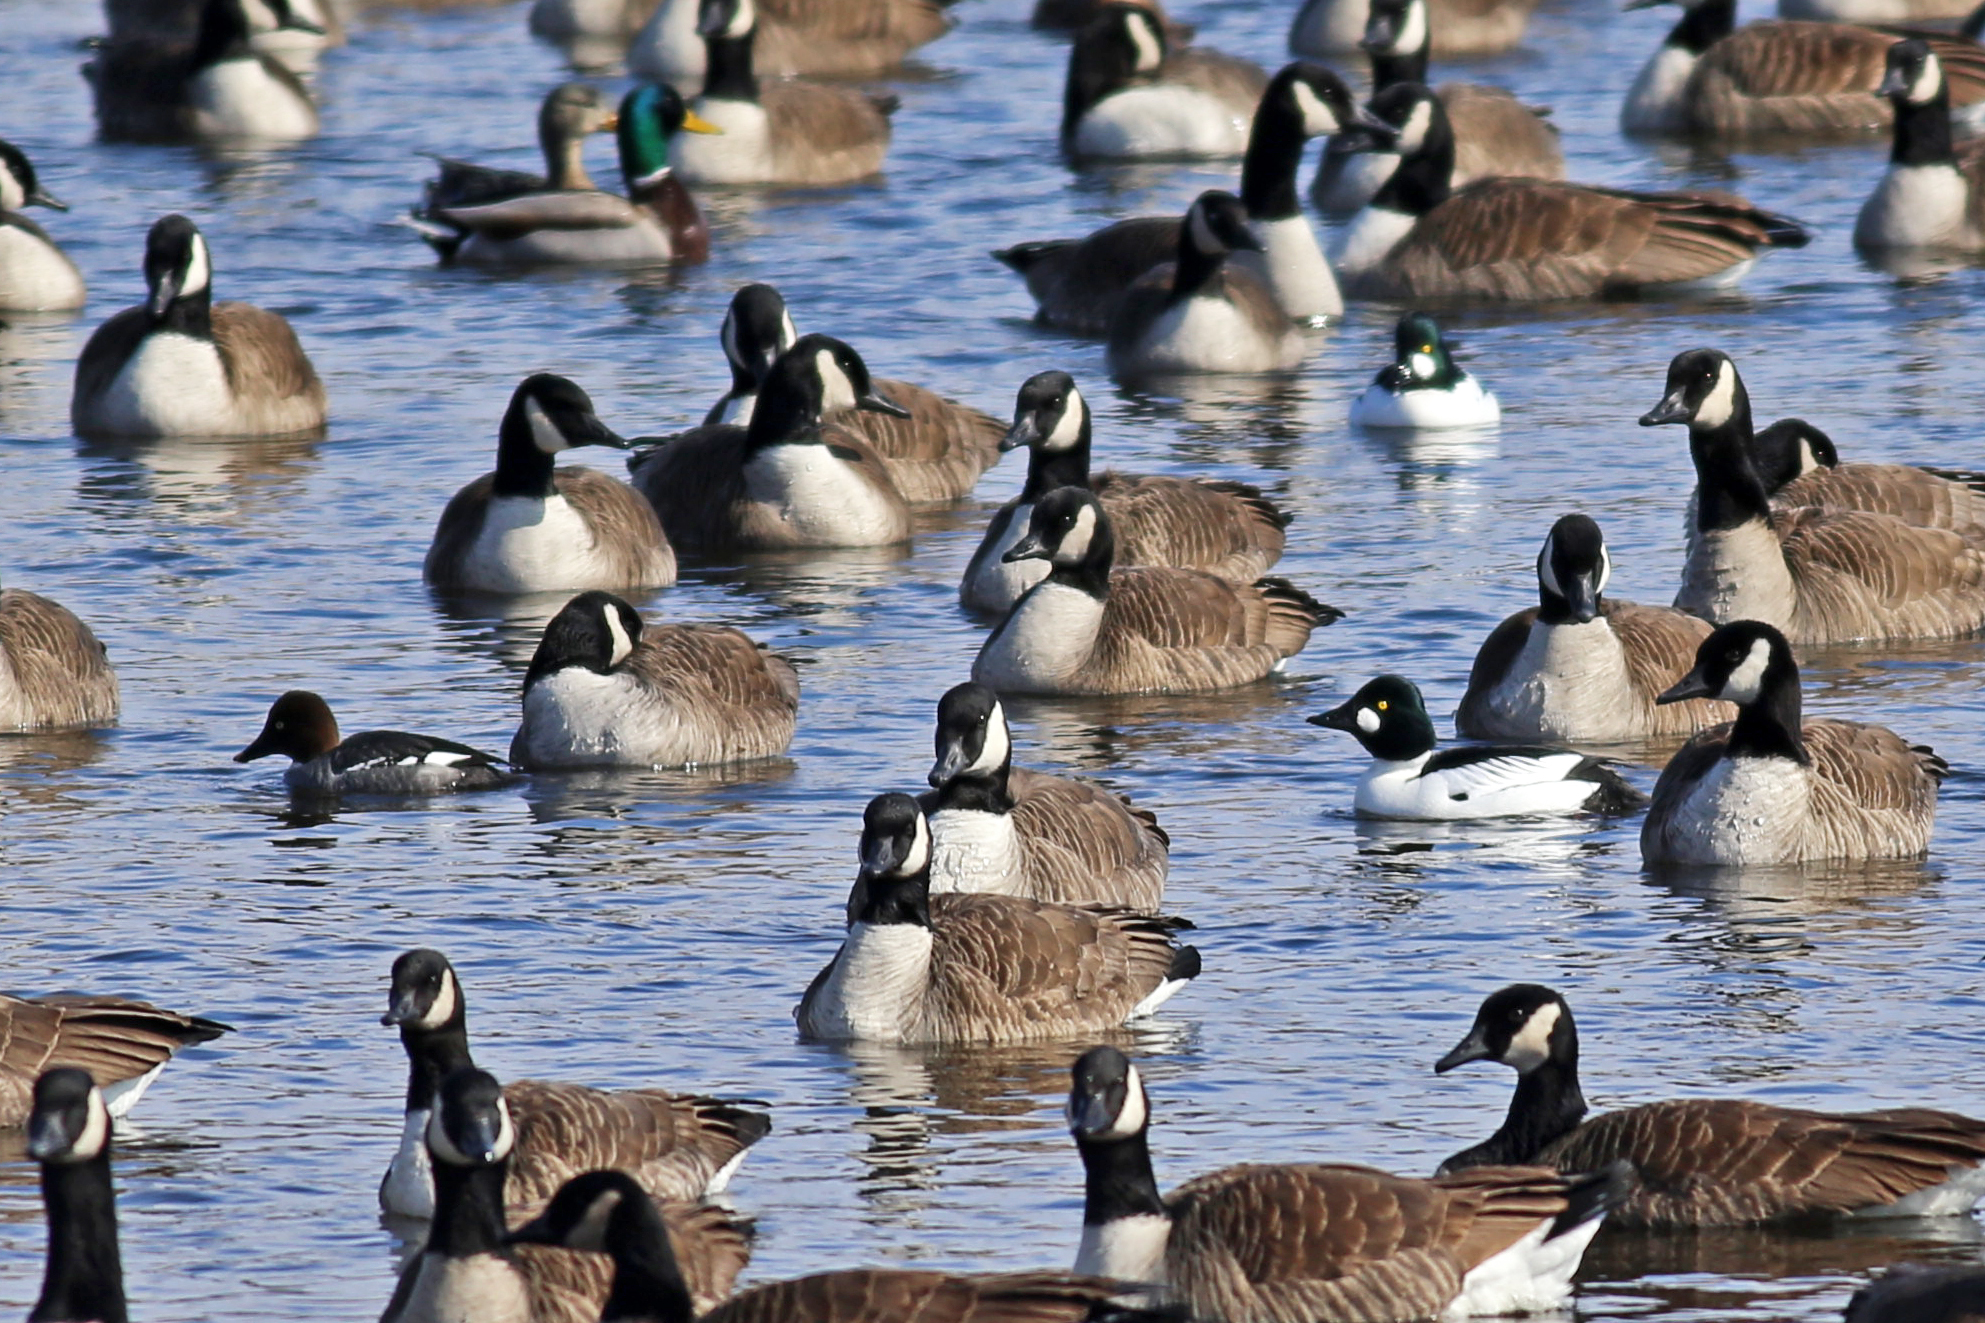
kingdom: Animalia
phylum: Chordata
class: Aves
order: Anseriformes
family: Anatidae
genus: Bucephala
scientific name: Bucephala clangula
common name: Common goldeneye
